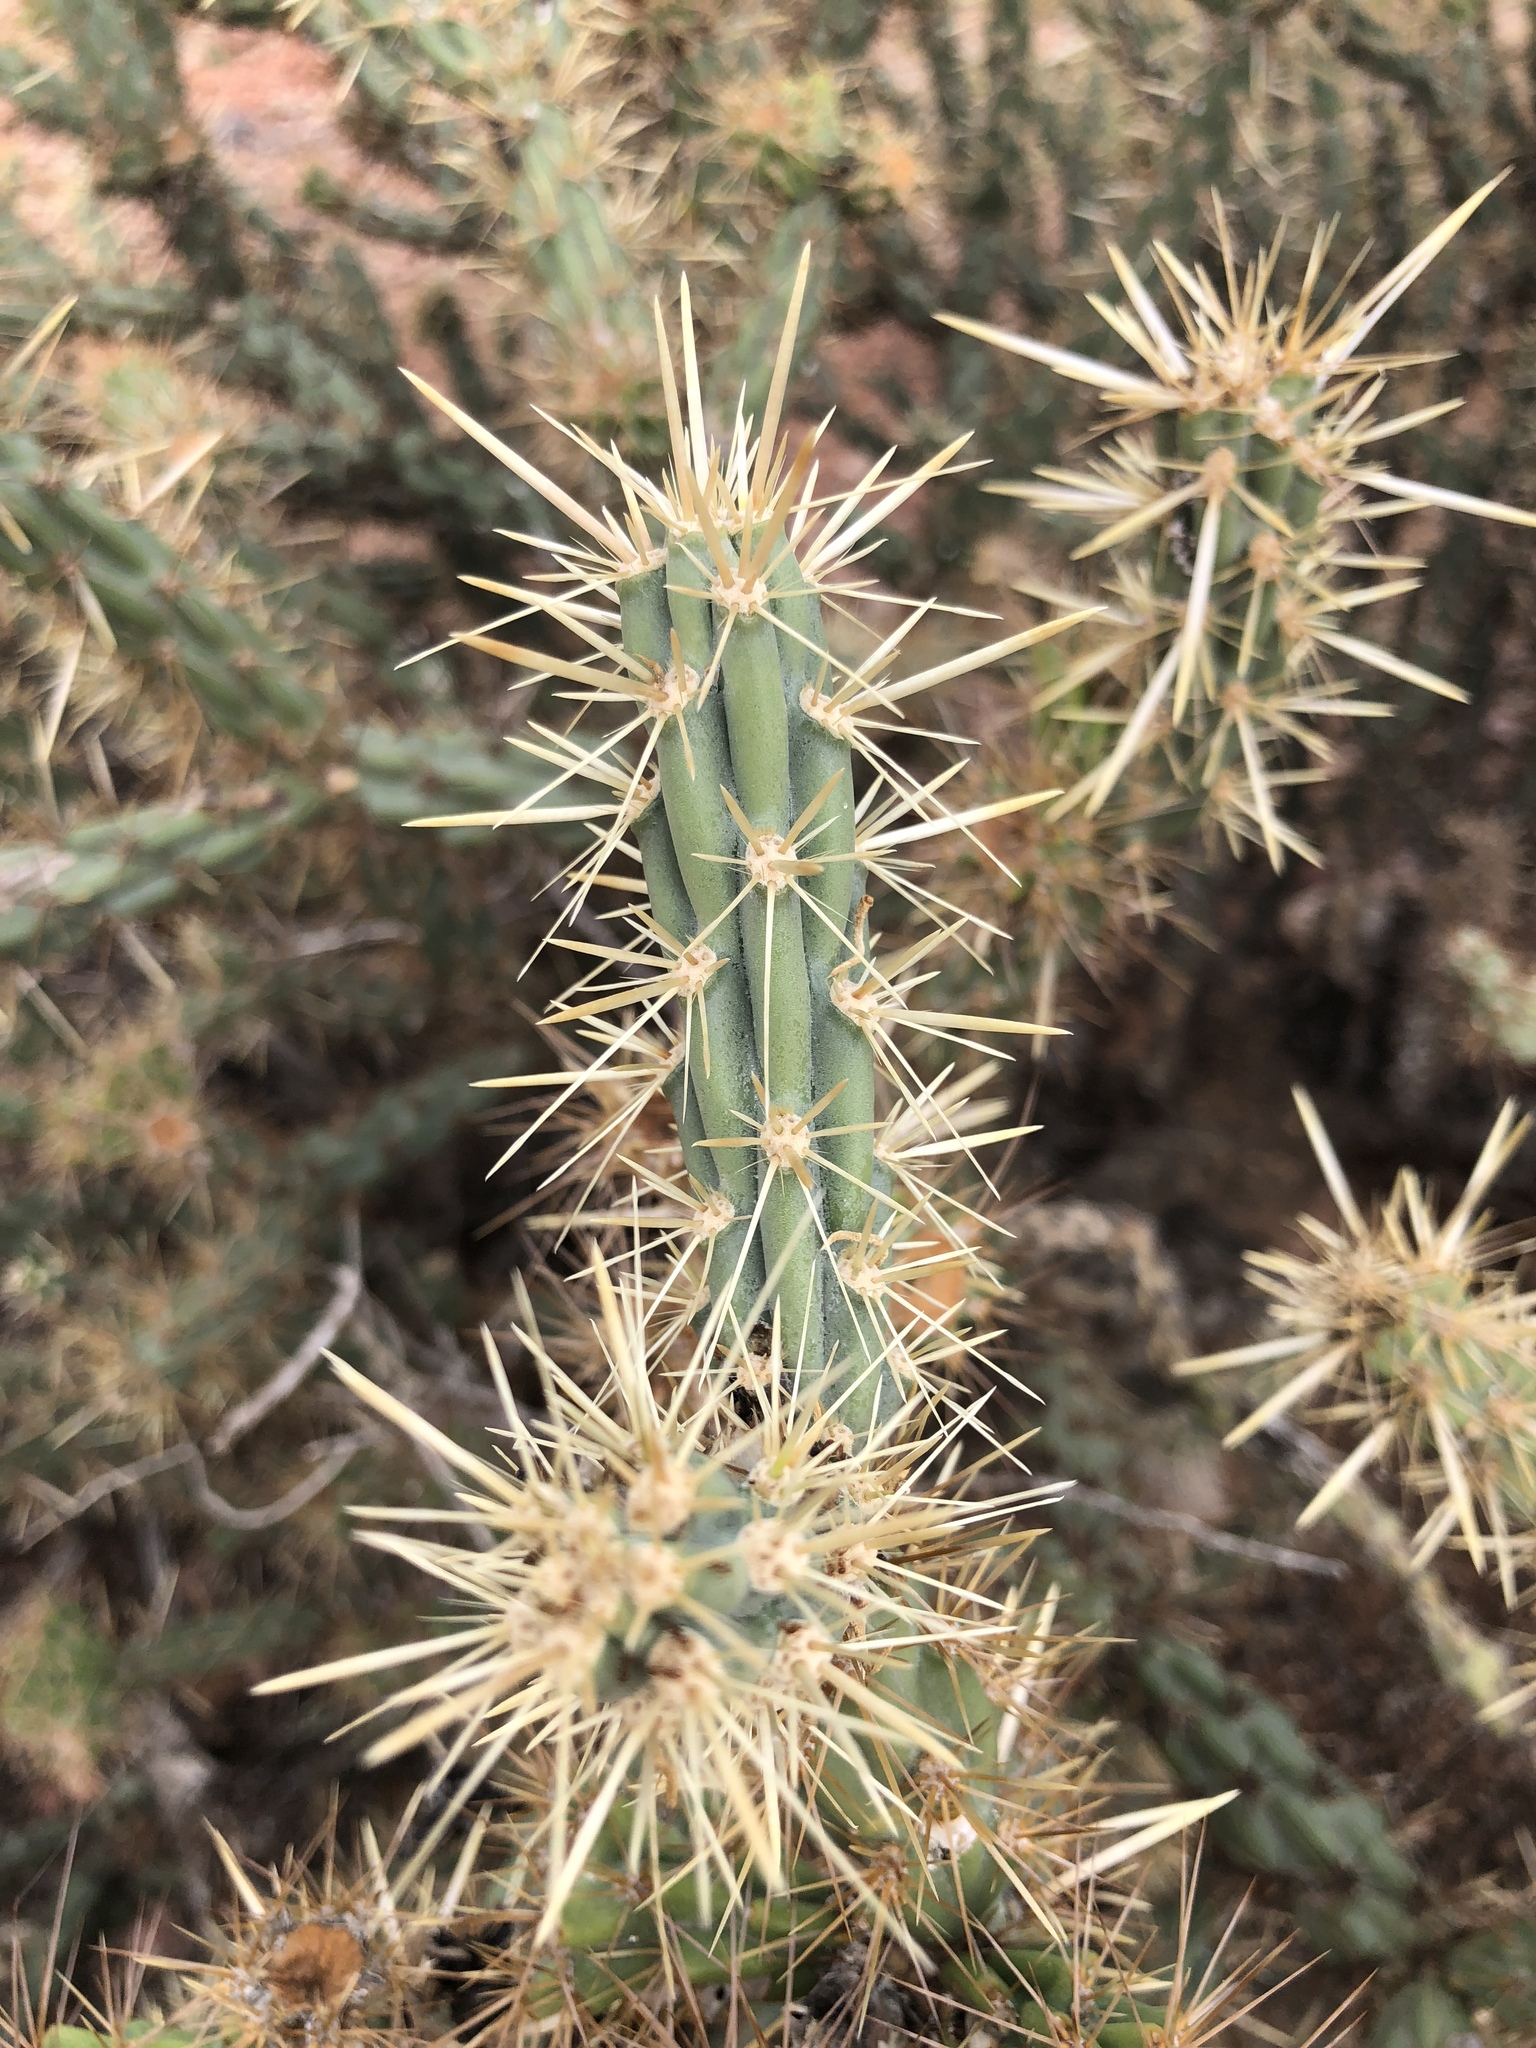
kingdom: Plantae
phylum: Tracheophyta
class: Magnoliopsida
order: Caryophyllales
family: Cactaceae
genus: Cylindropuntia
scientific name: Cylindropuntia acanthocarpa
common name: Buckhorn cholla
